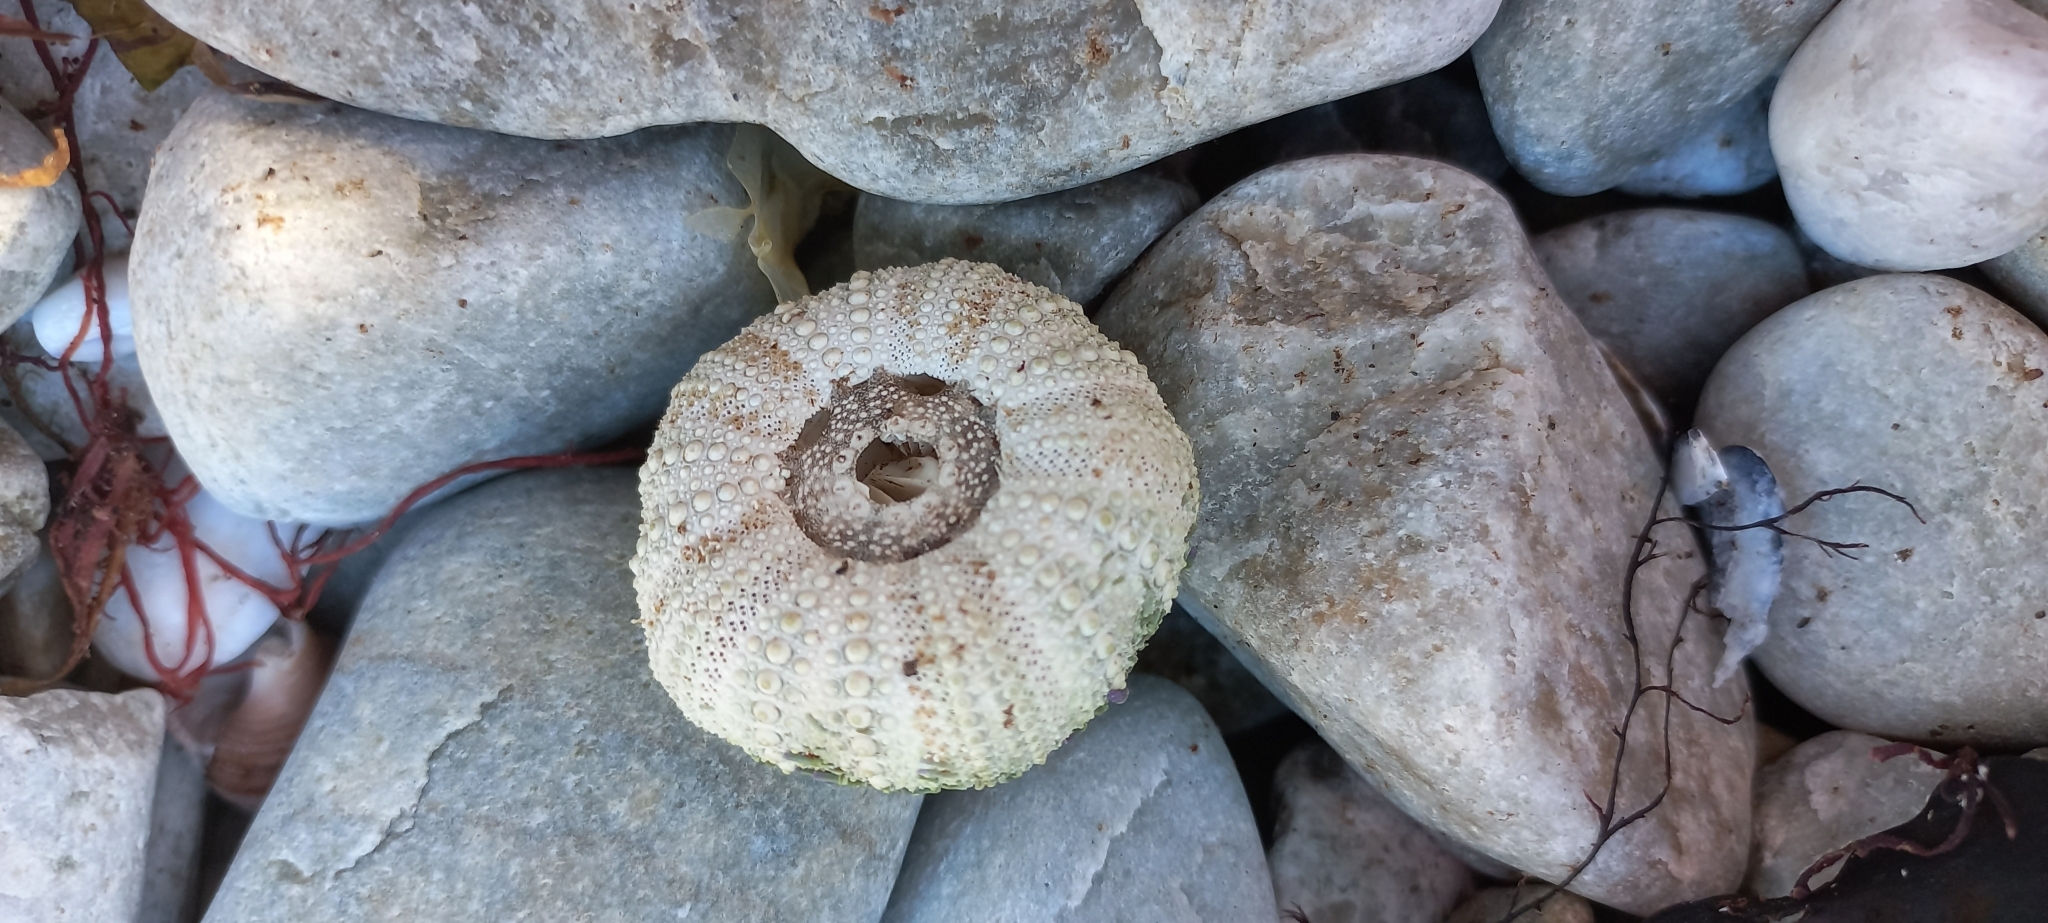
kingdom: Animalia
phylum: Echinodermata
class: Echinoidea
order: Camarodonta
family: Parechinidae
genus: Parechinus
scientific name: Parechinus angulosus
